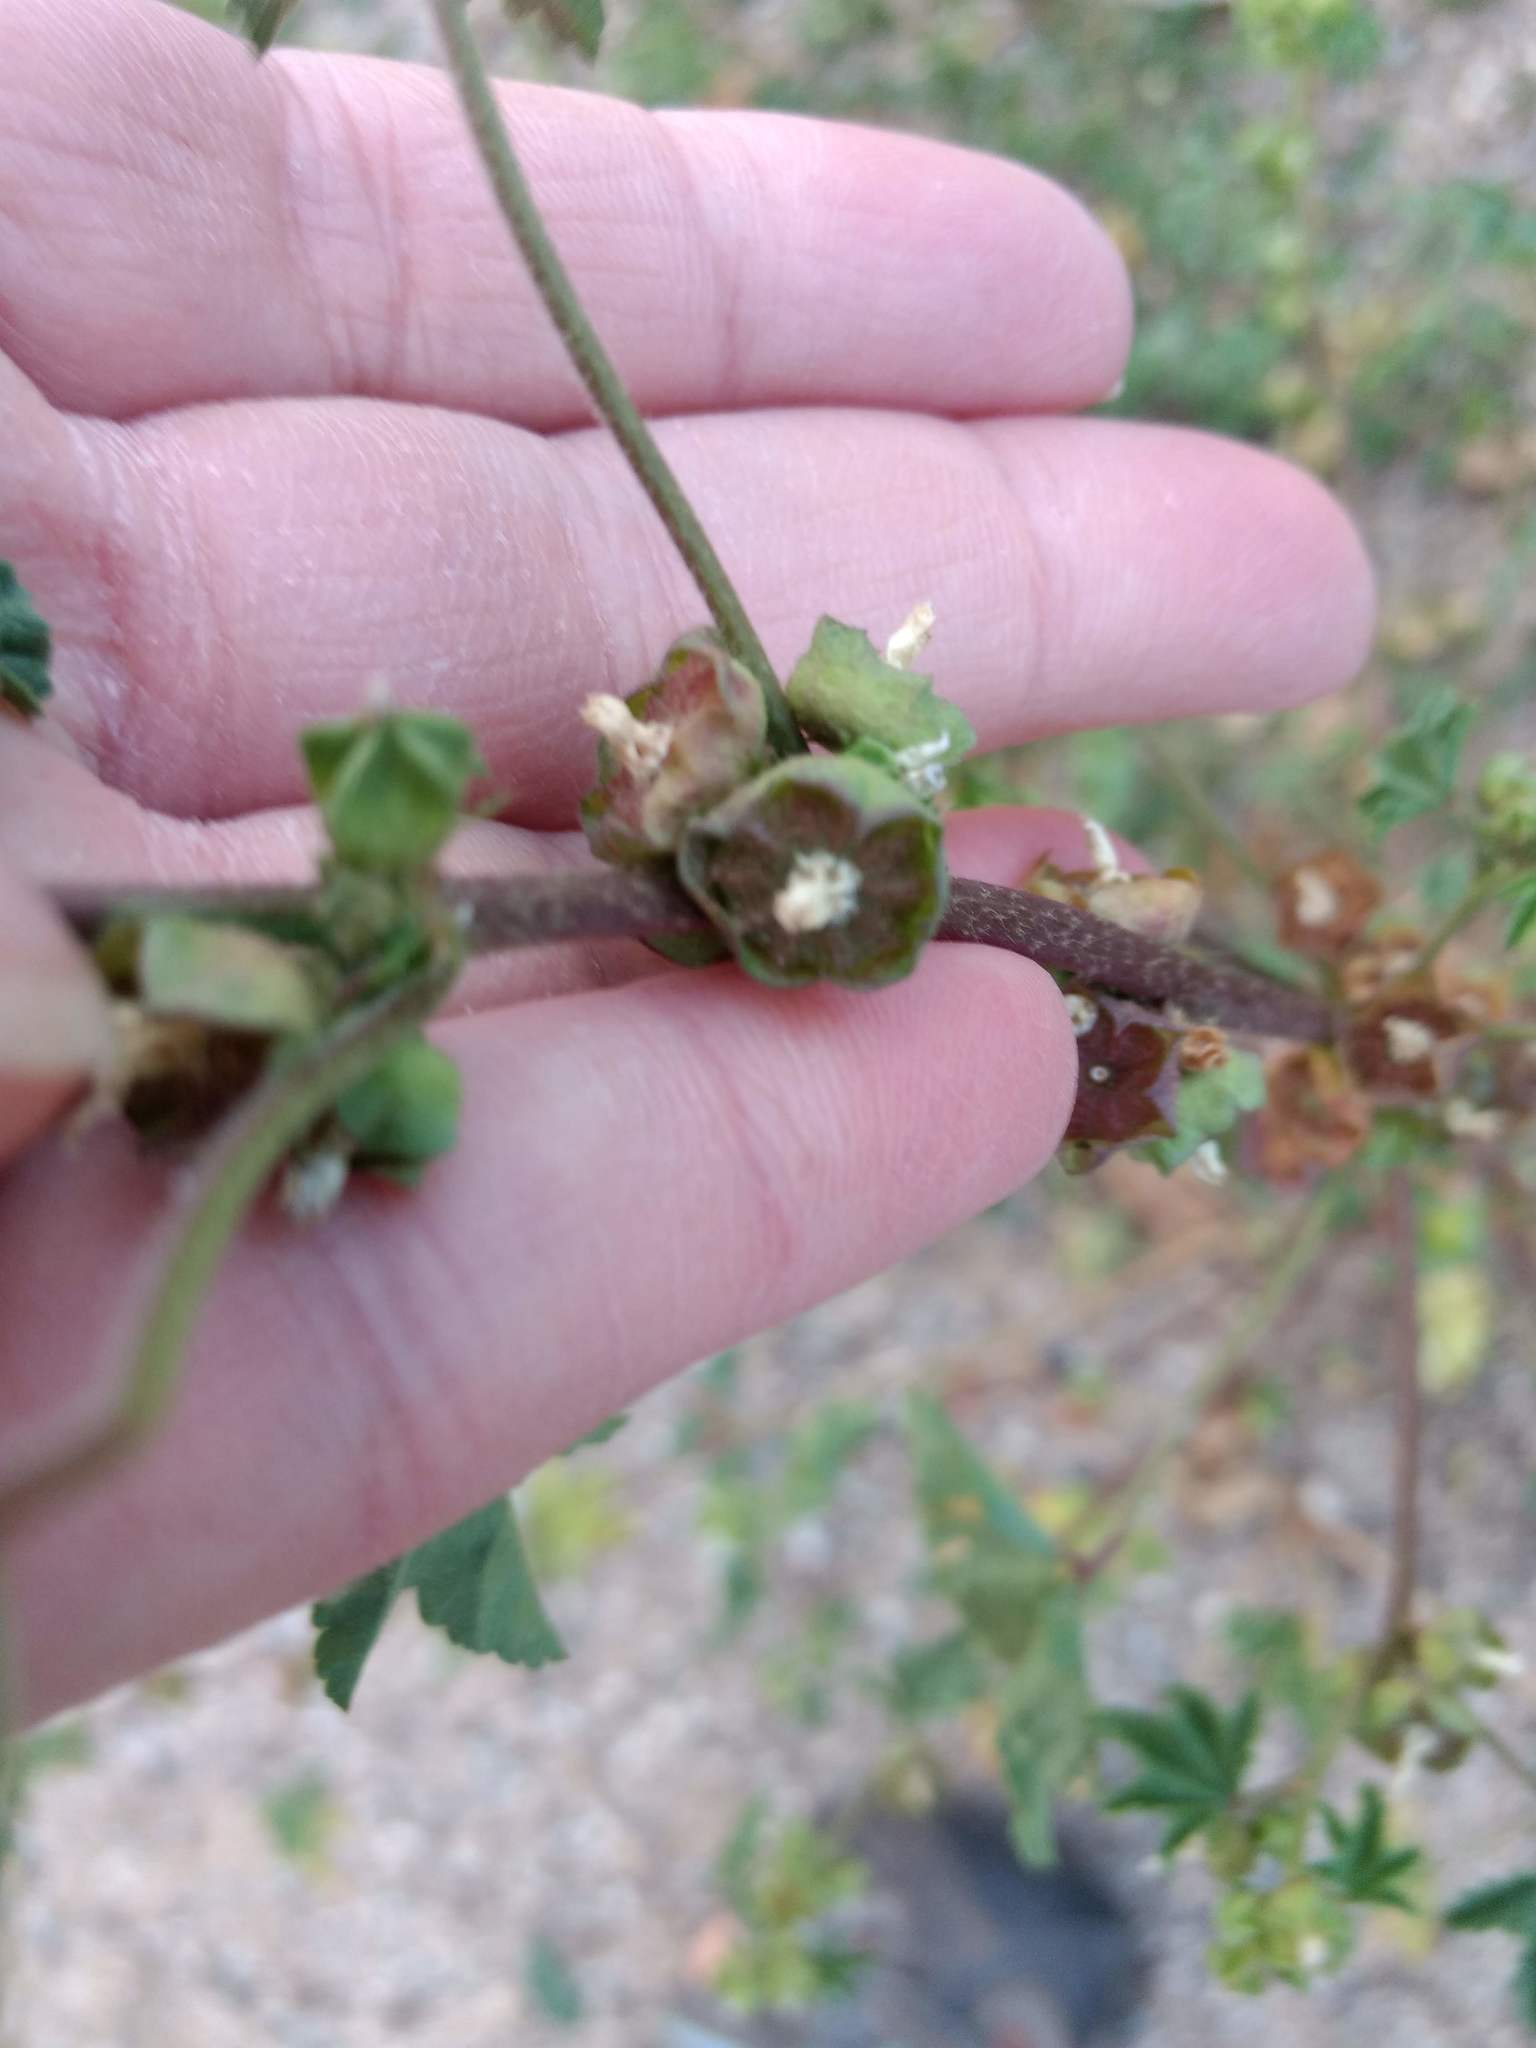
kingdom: Plantae
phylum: Tracheophyta
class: Magnoliopsida
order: Malvales
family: Malvaceae
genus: Malva
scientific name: Malva parviflora
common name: Least mallow
